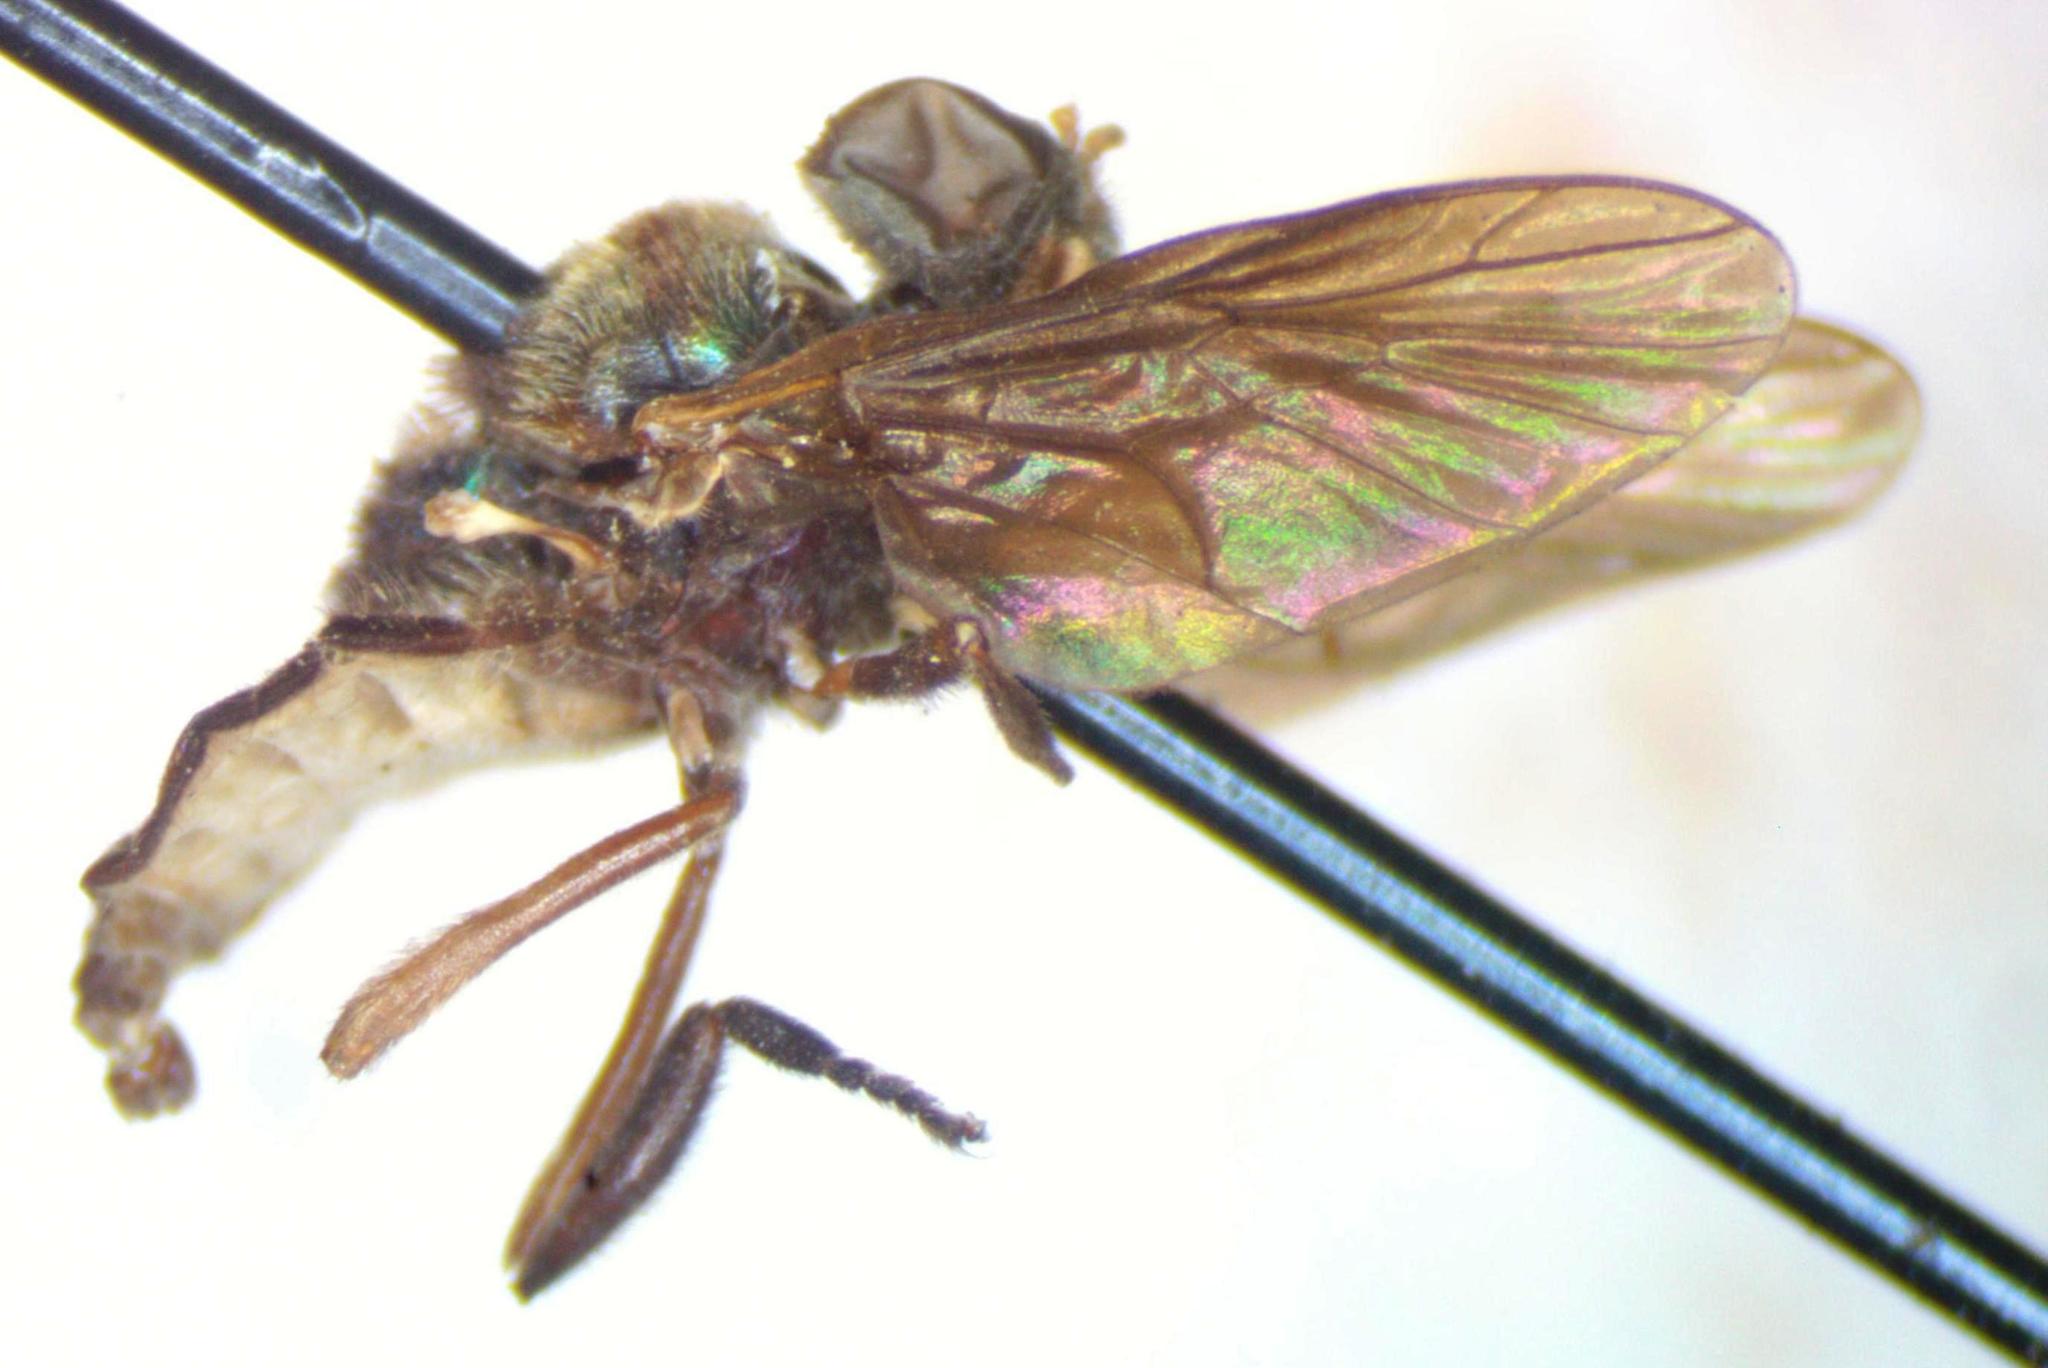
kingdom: Animalia
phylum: Arthropoda
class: Insecta
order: Diptera
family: Stratiomyidae
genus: Heteracanthia
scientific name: Heteracanthia ruficornis
